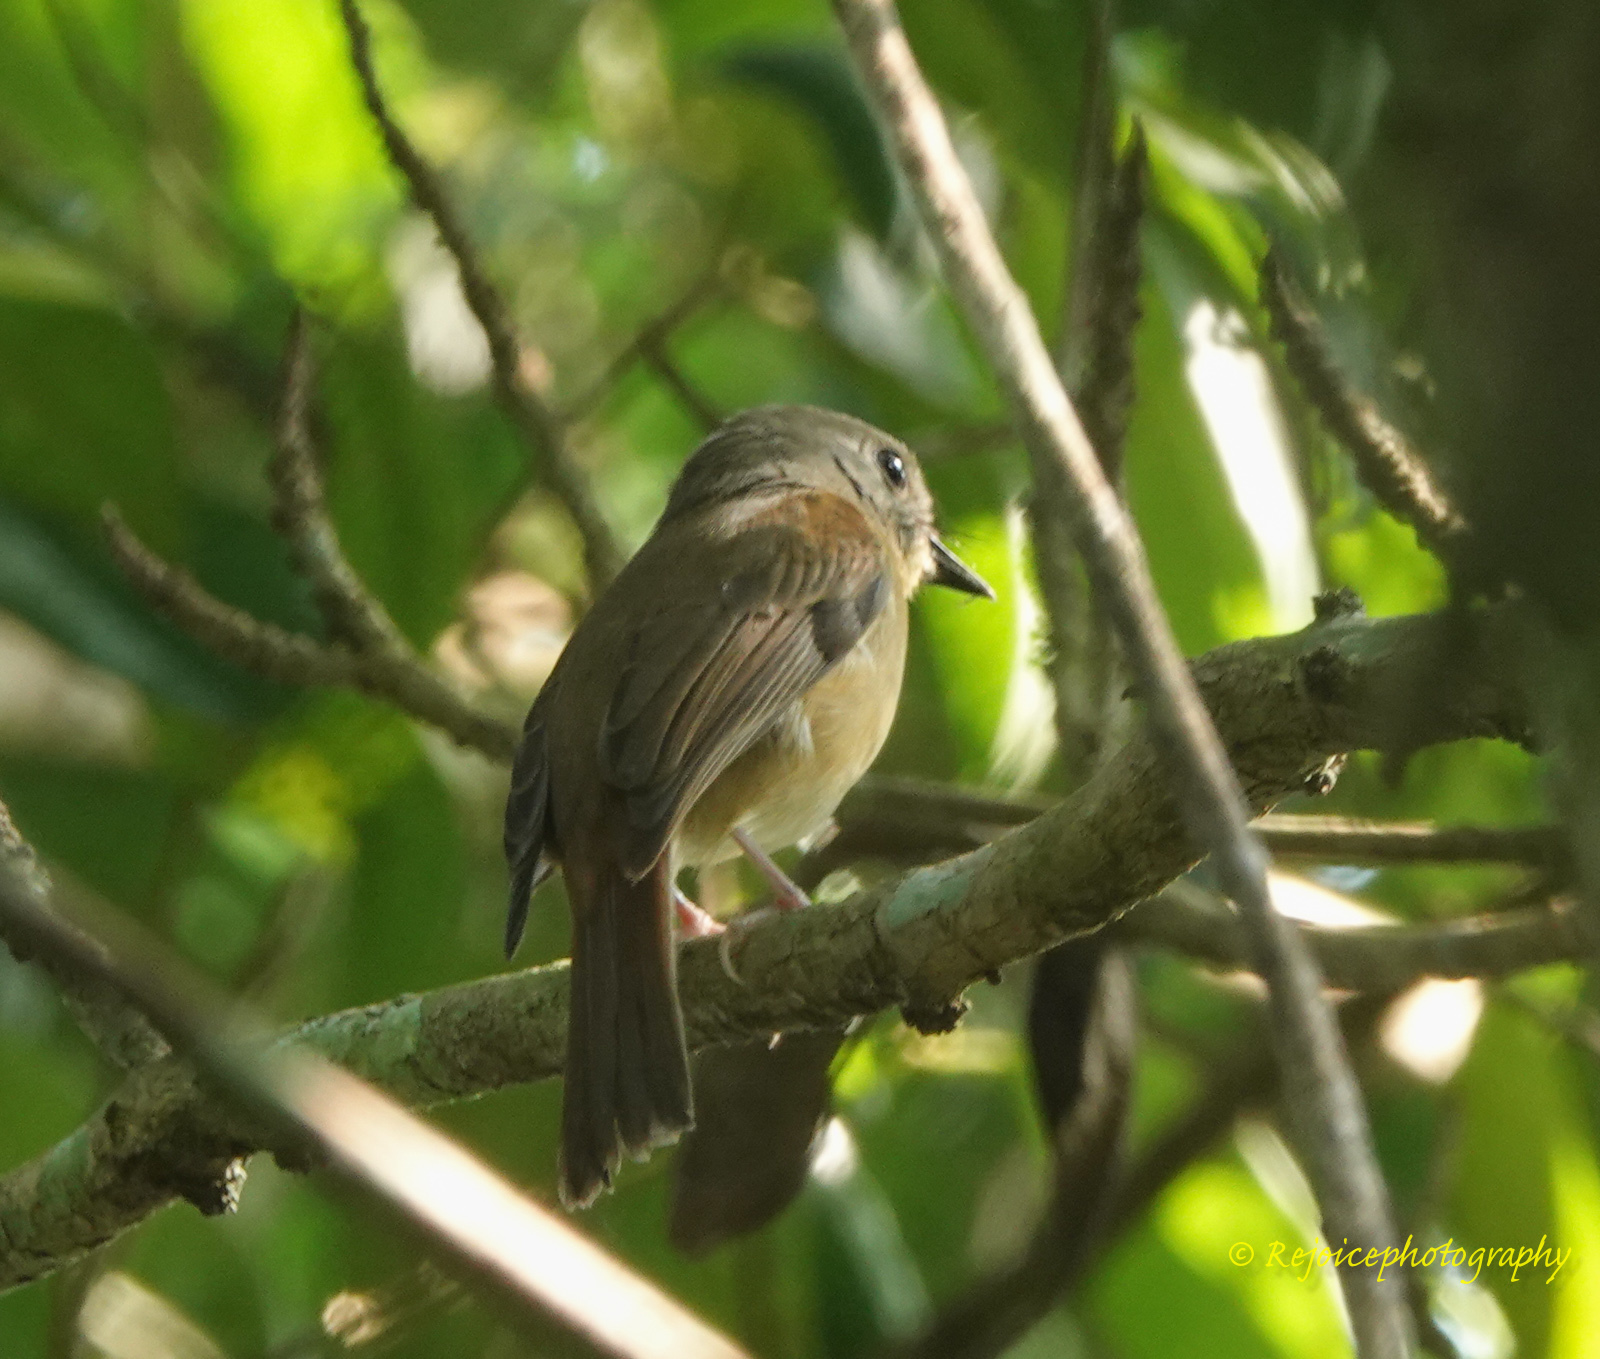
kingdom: Animalia
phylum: Chordata
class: Aves
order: Passeriformes
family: Muscicapidae
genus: Cyornis
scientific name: Cyornis poliogenys
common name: Pale-chinned blue flycatcher
